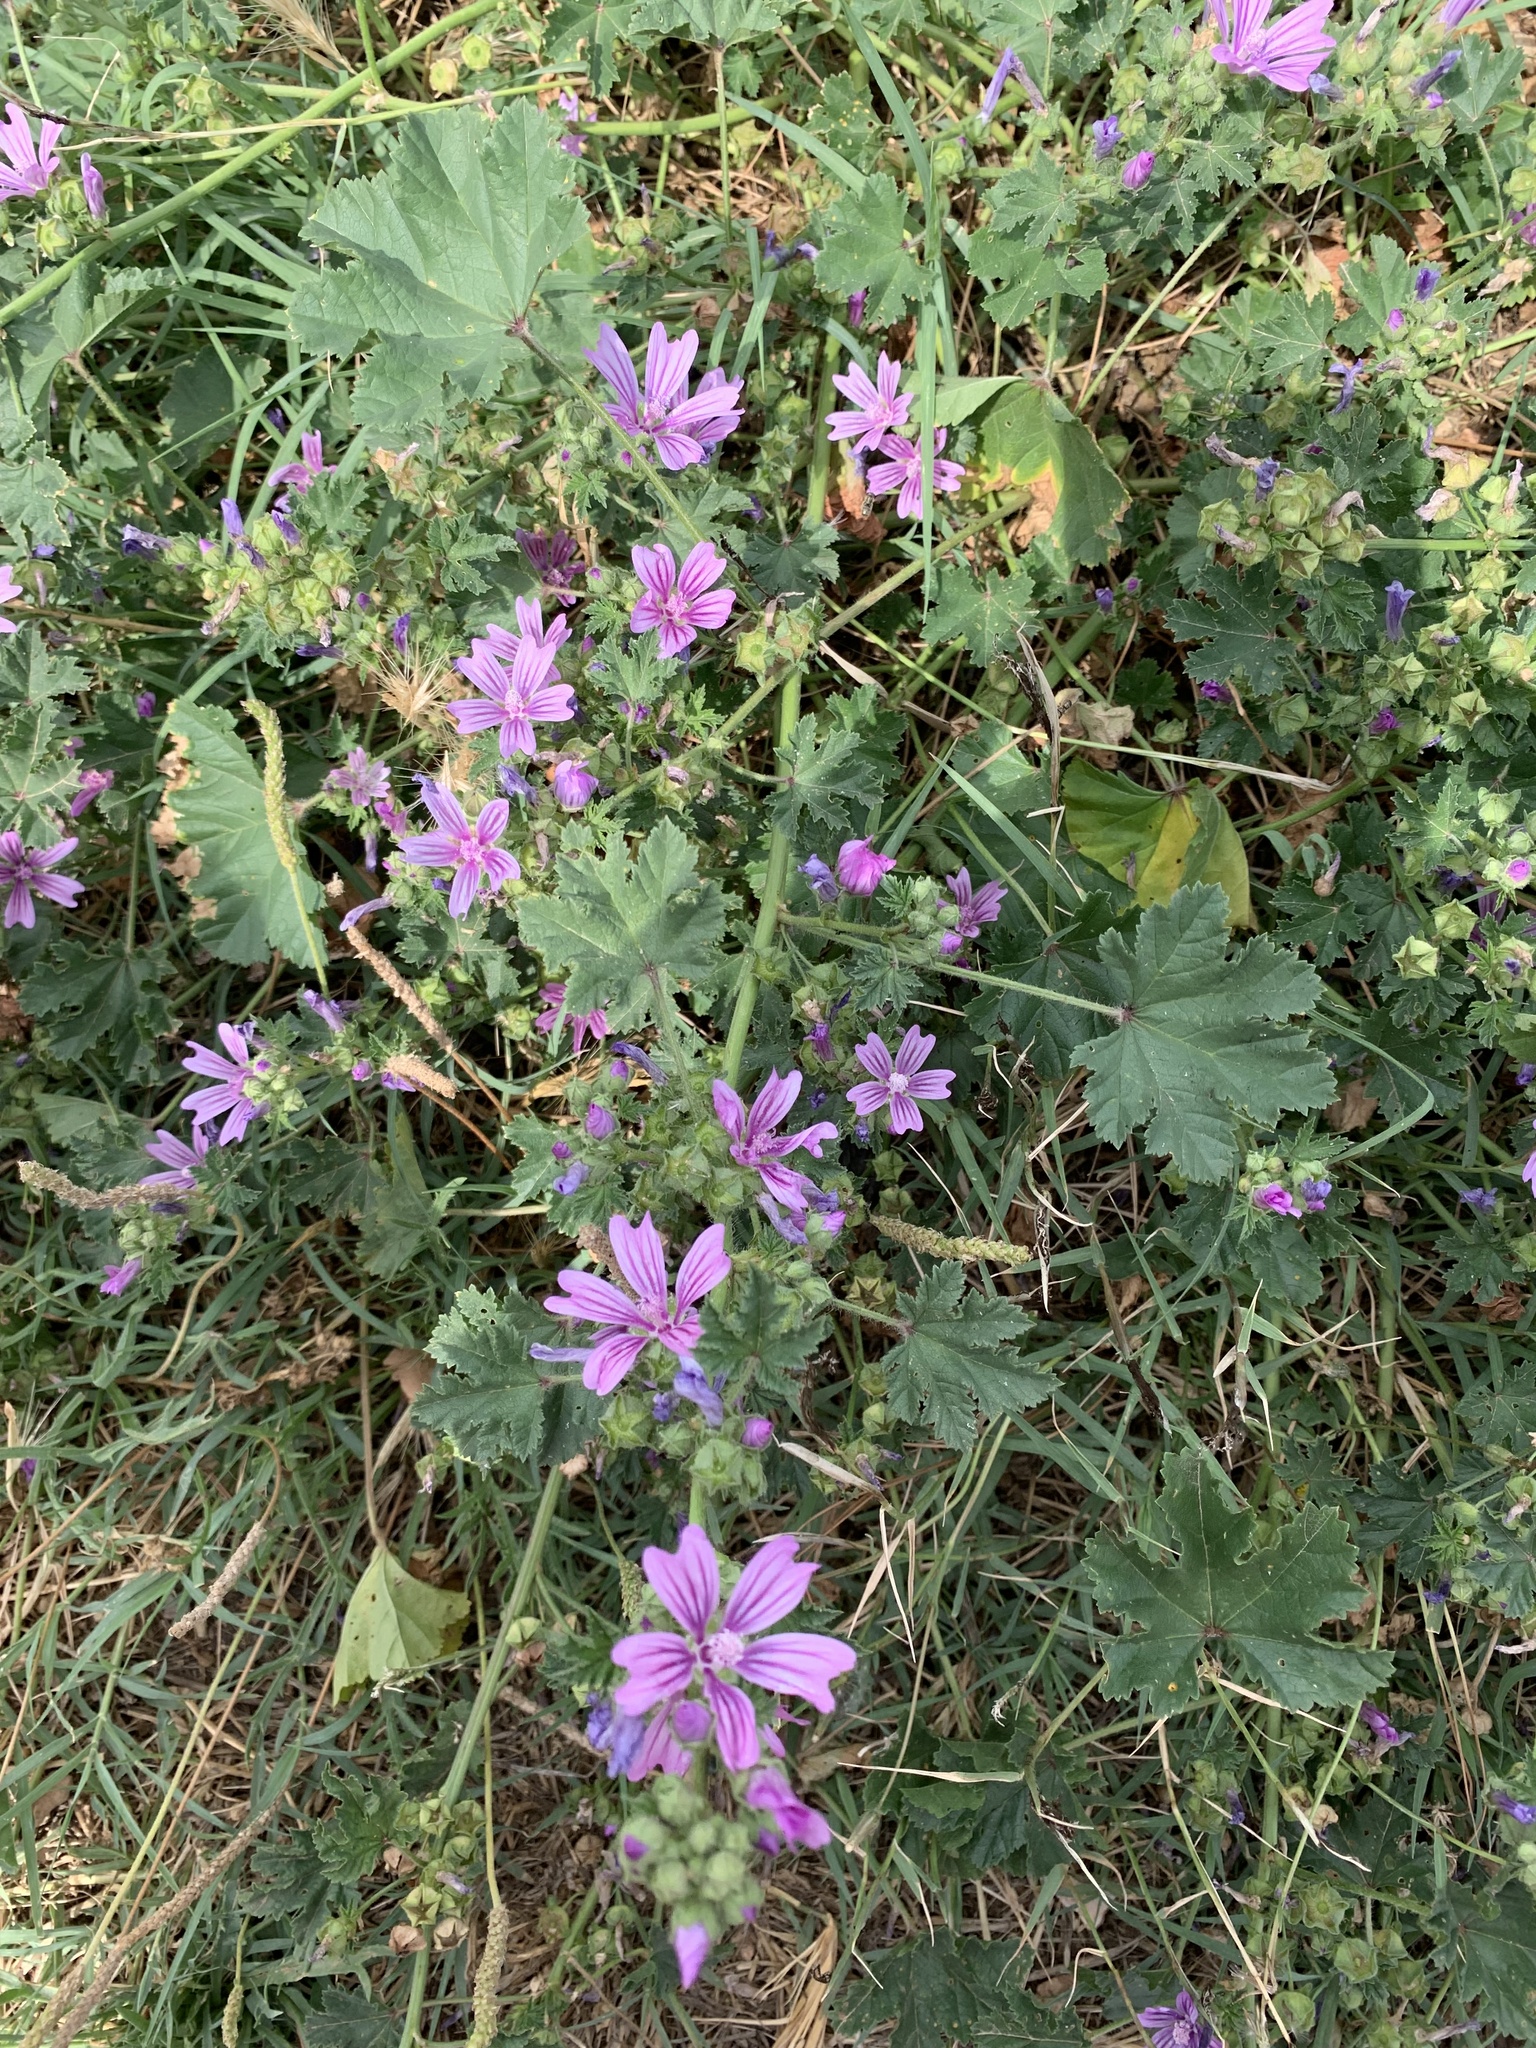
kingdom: Plantae
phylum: Tracheophyta
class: Magnoliopsida
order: Malvales
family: Malvaceae
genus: Malva
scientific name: Malva sylvestris
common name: Common mallow
